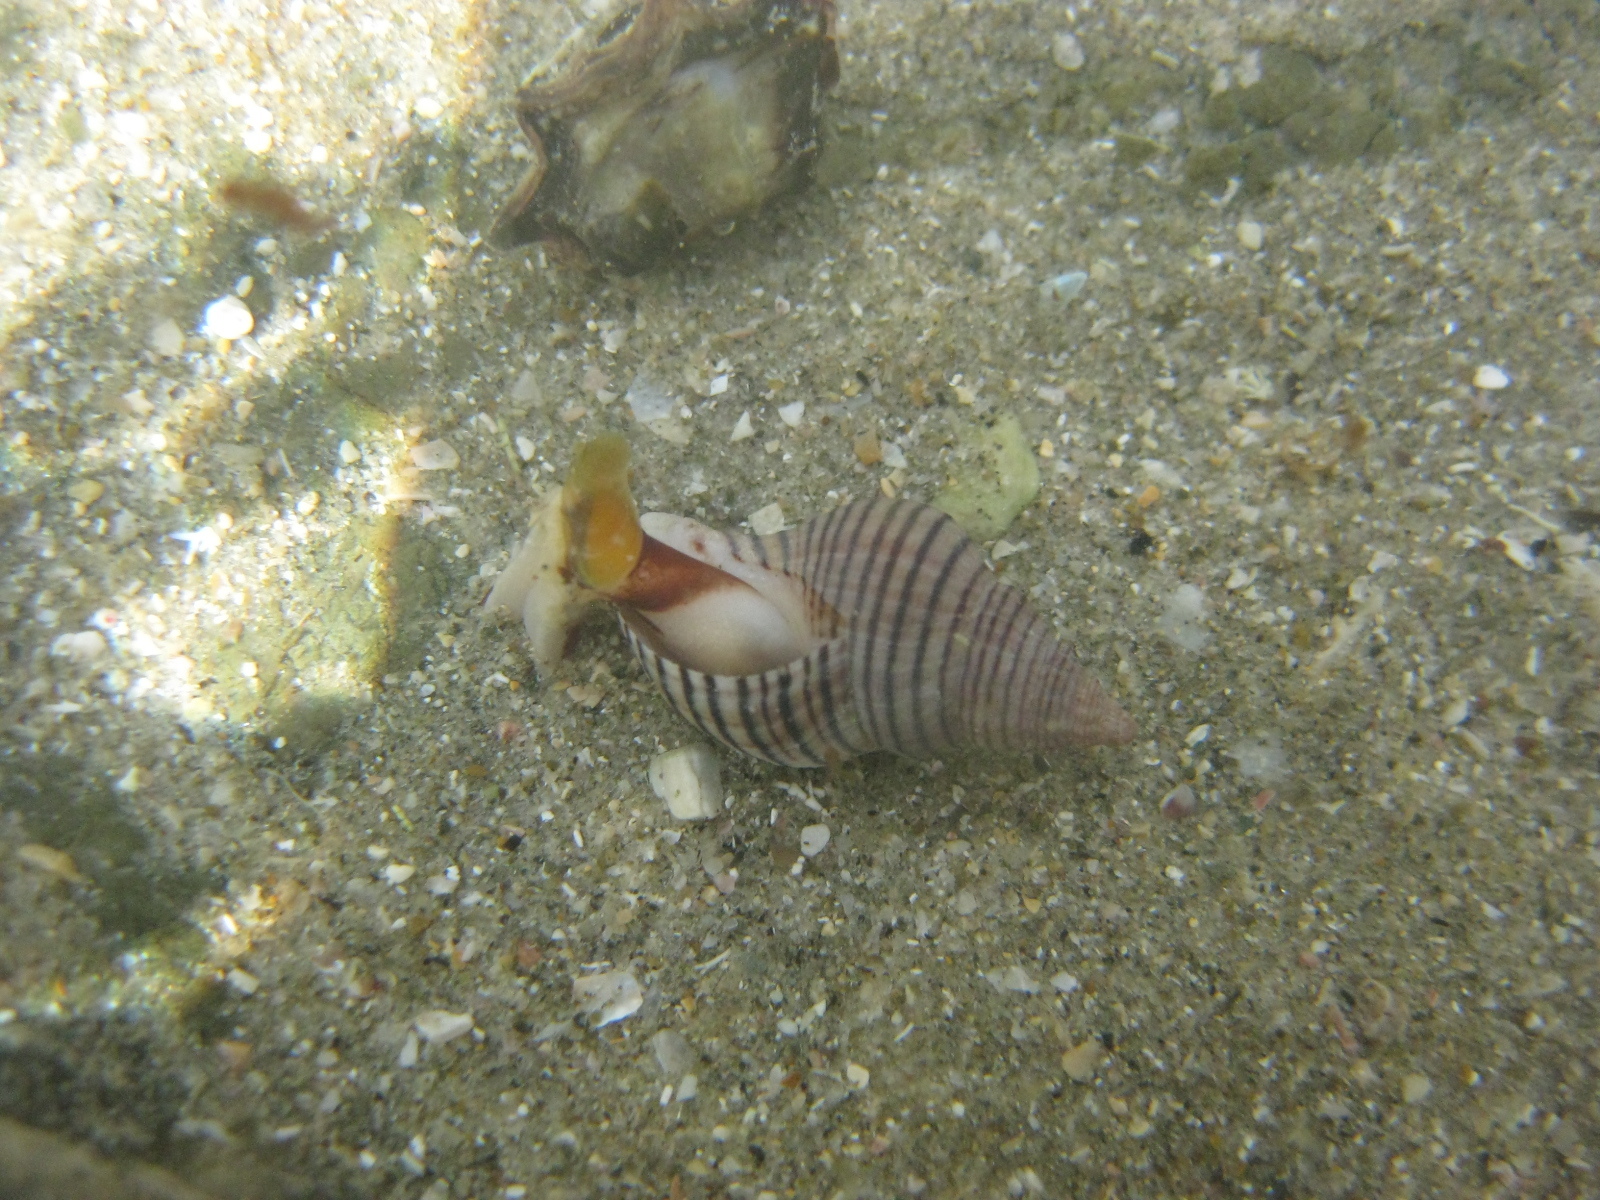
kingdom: Animalia
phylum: Mollusca
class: Gastropoda
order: Neogastropoda
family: Tudiclidae
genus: Buccinulum
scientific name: Buccinulum linea
